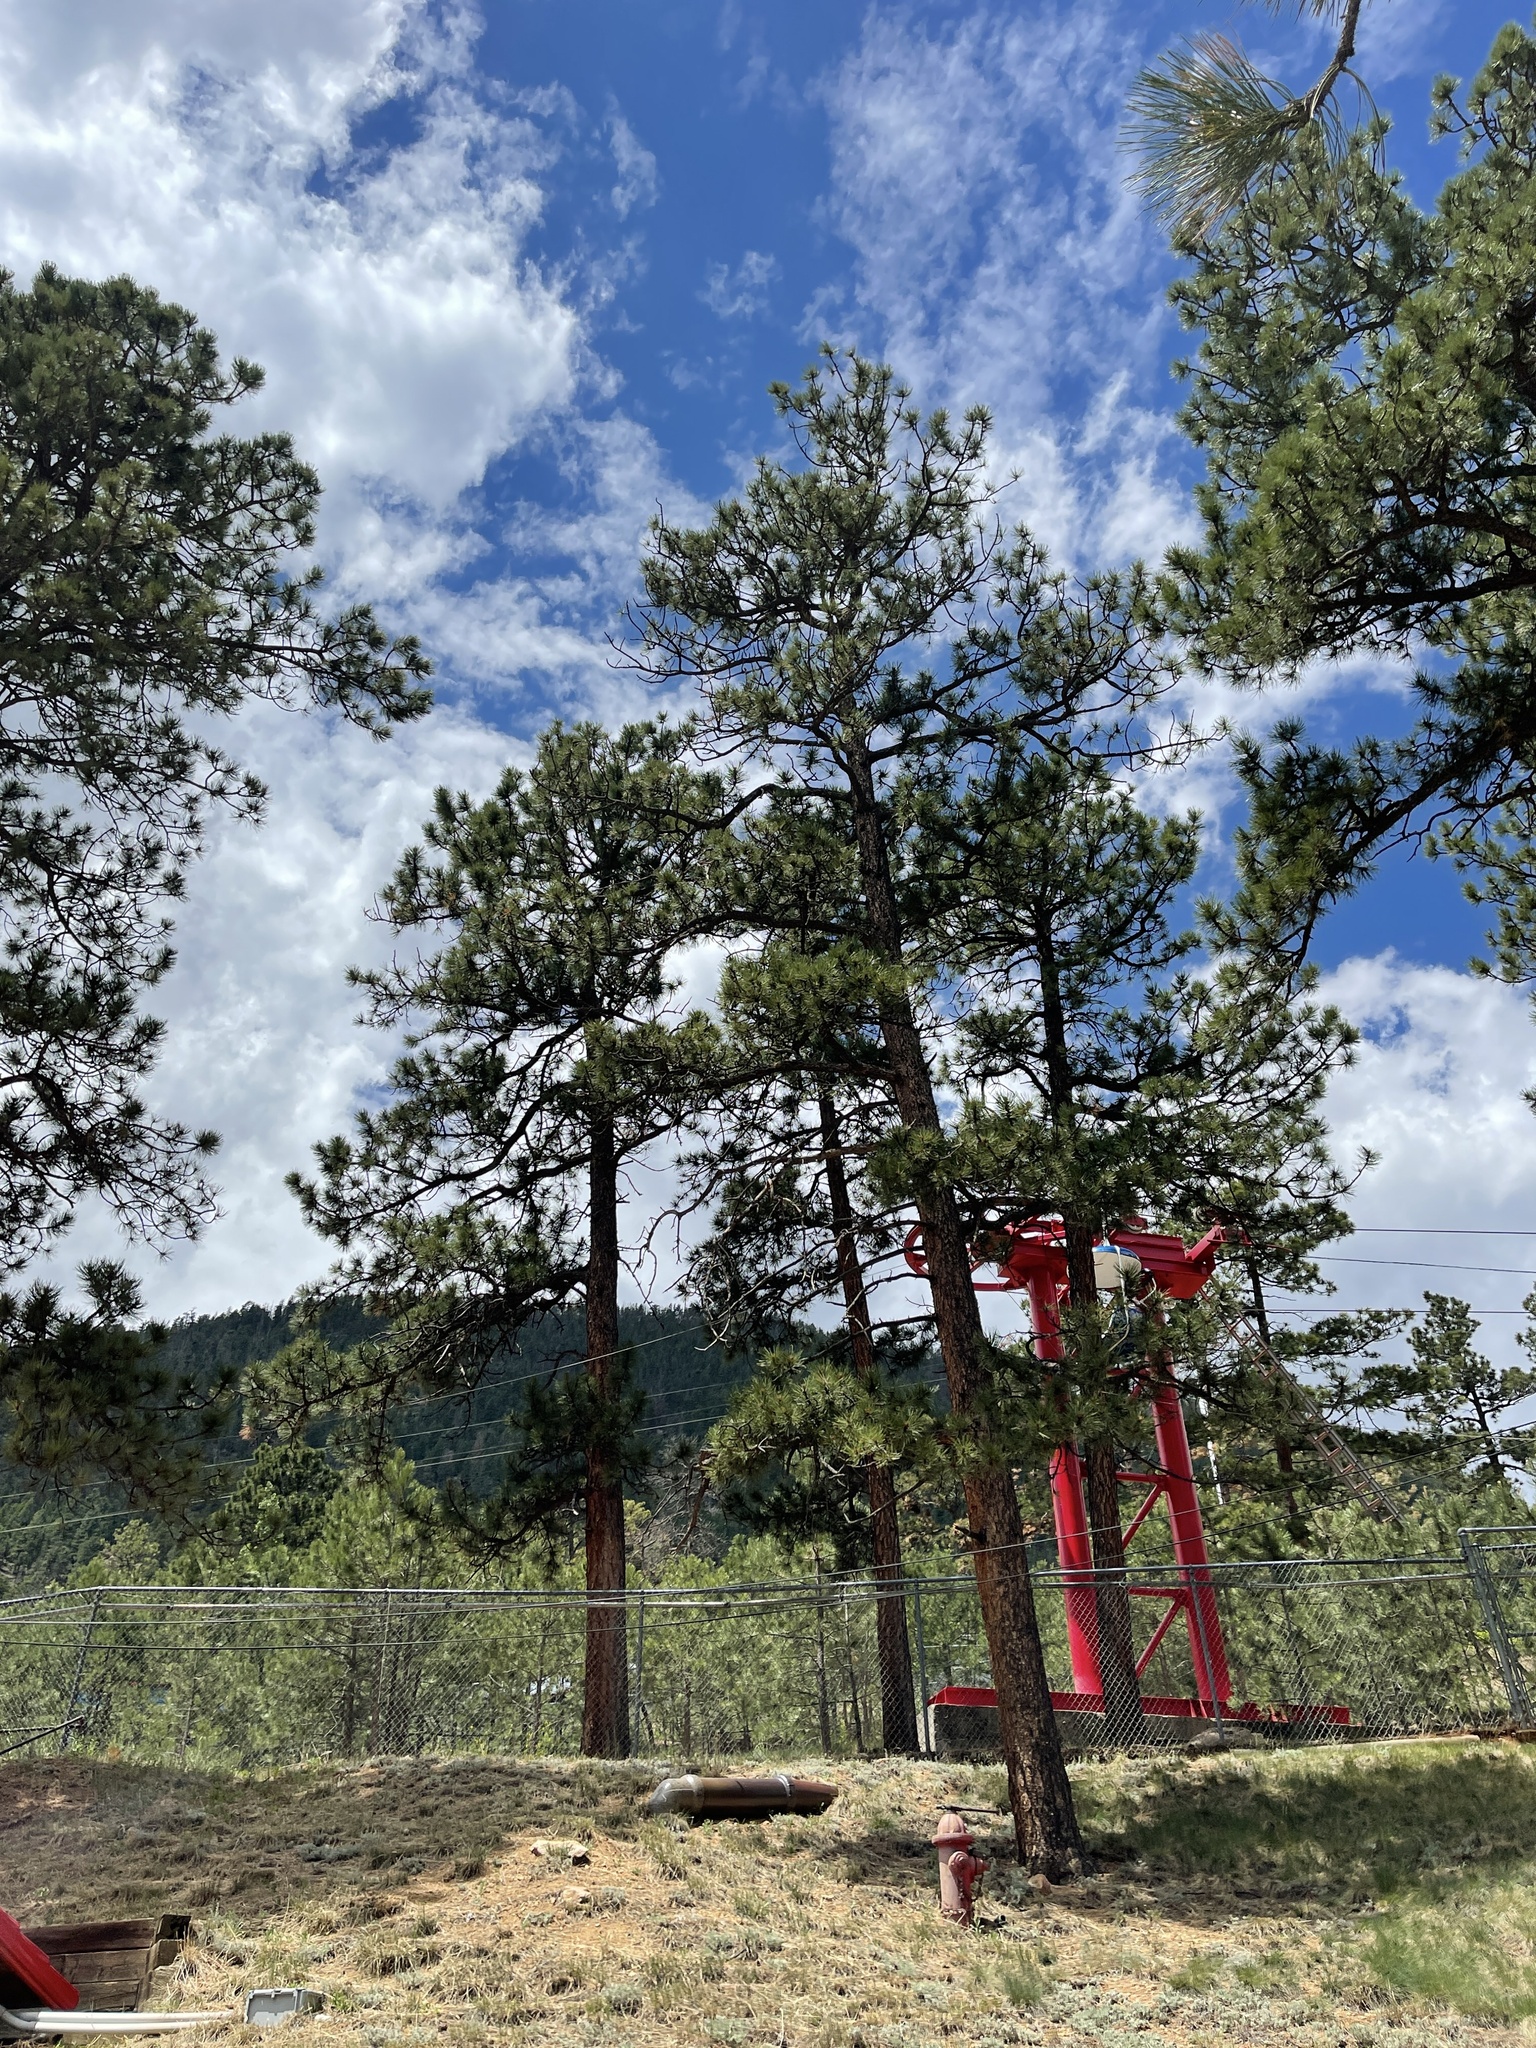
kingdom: Plantae
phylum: Tracheophyta
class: Pinopsida
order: Pinales
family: Pinaceae
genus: Pinus
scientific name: Pinus ponderosa
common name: Western yellow-pine
